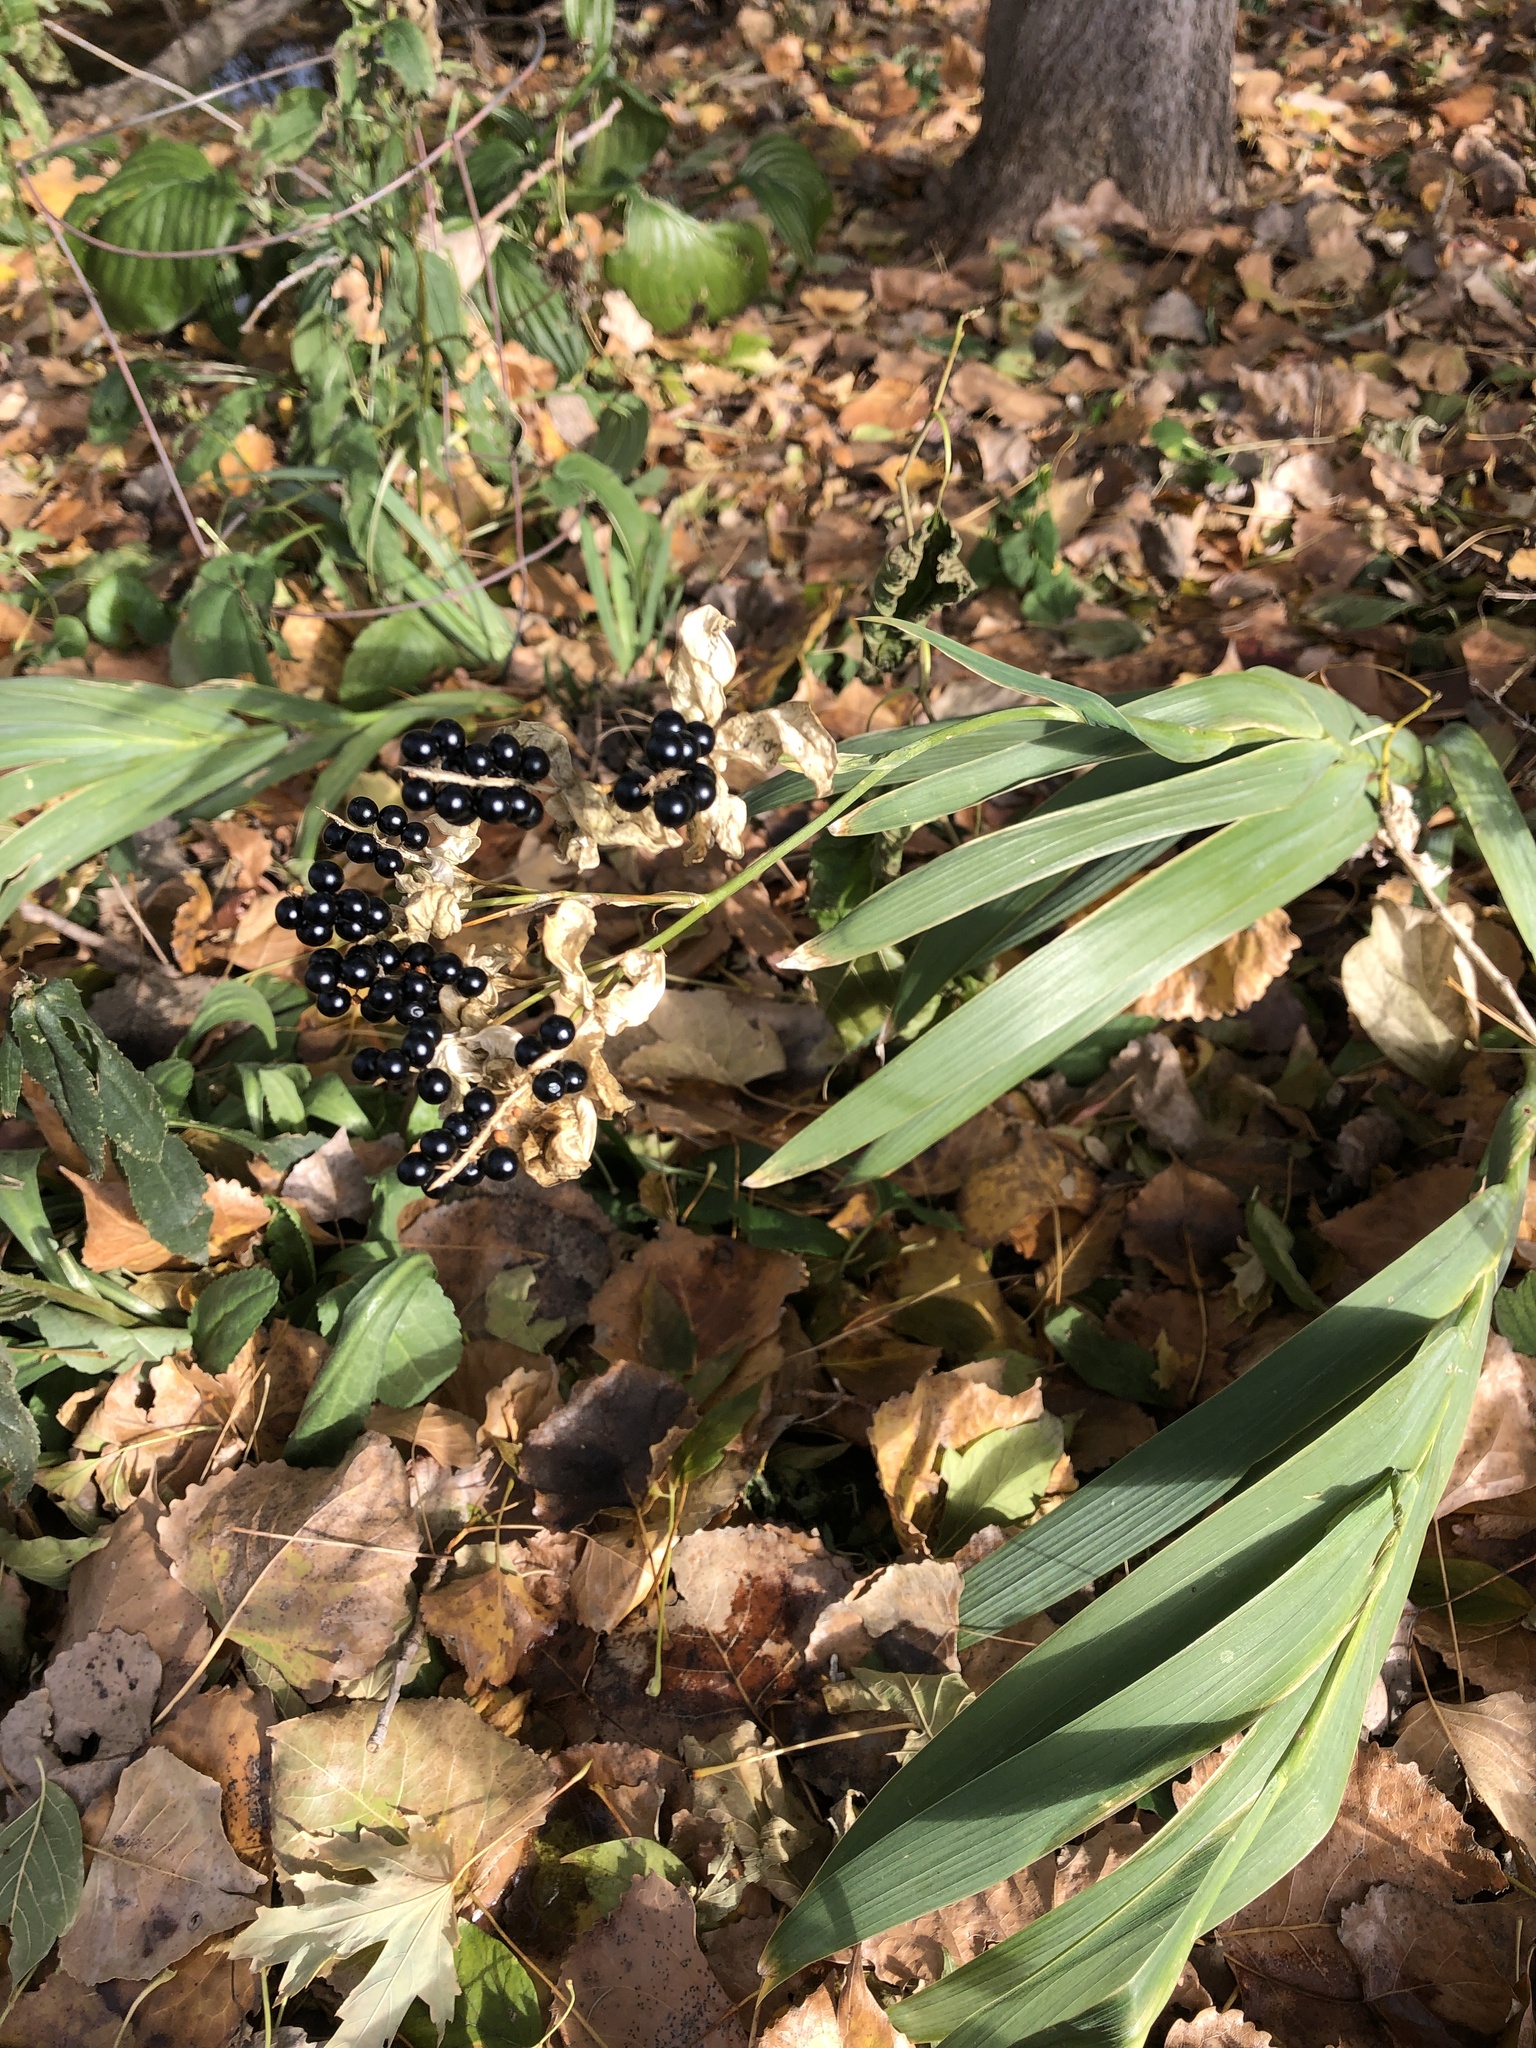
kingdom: Plantae
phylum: Tracheophyta
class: Liliopsida
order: Asparagales
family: Iridaceae
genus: Iris
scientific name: Iris domestica
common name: Belamcanda
